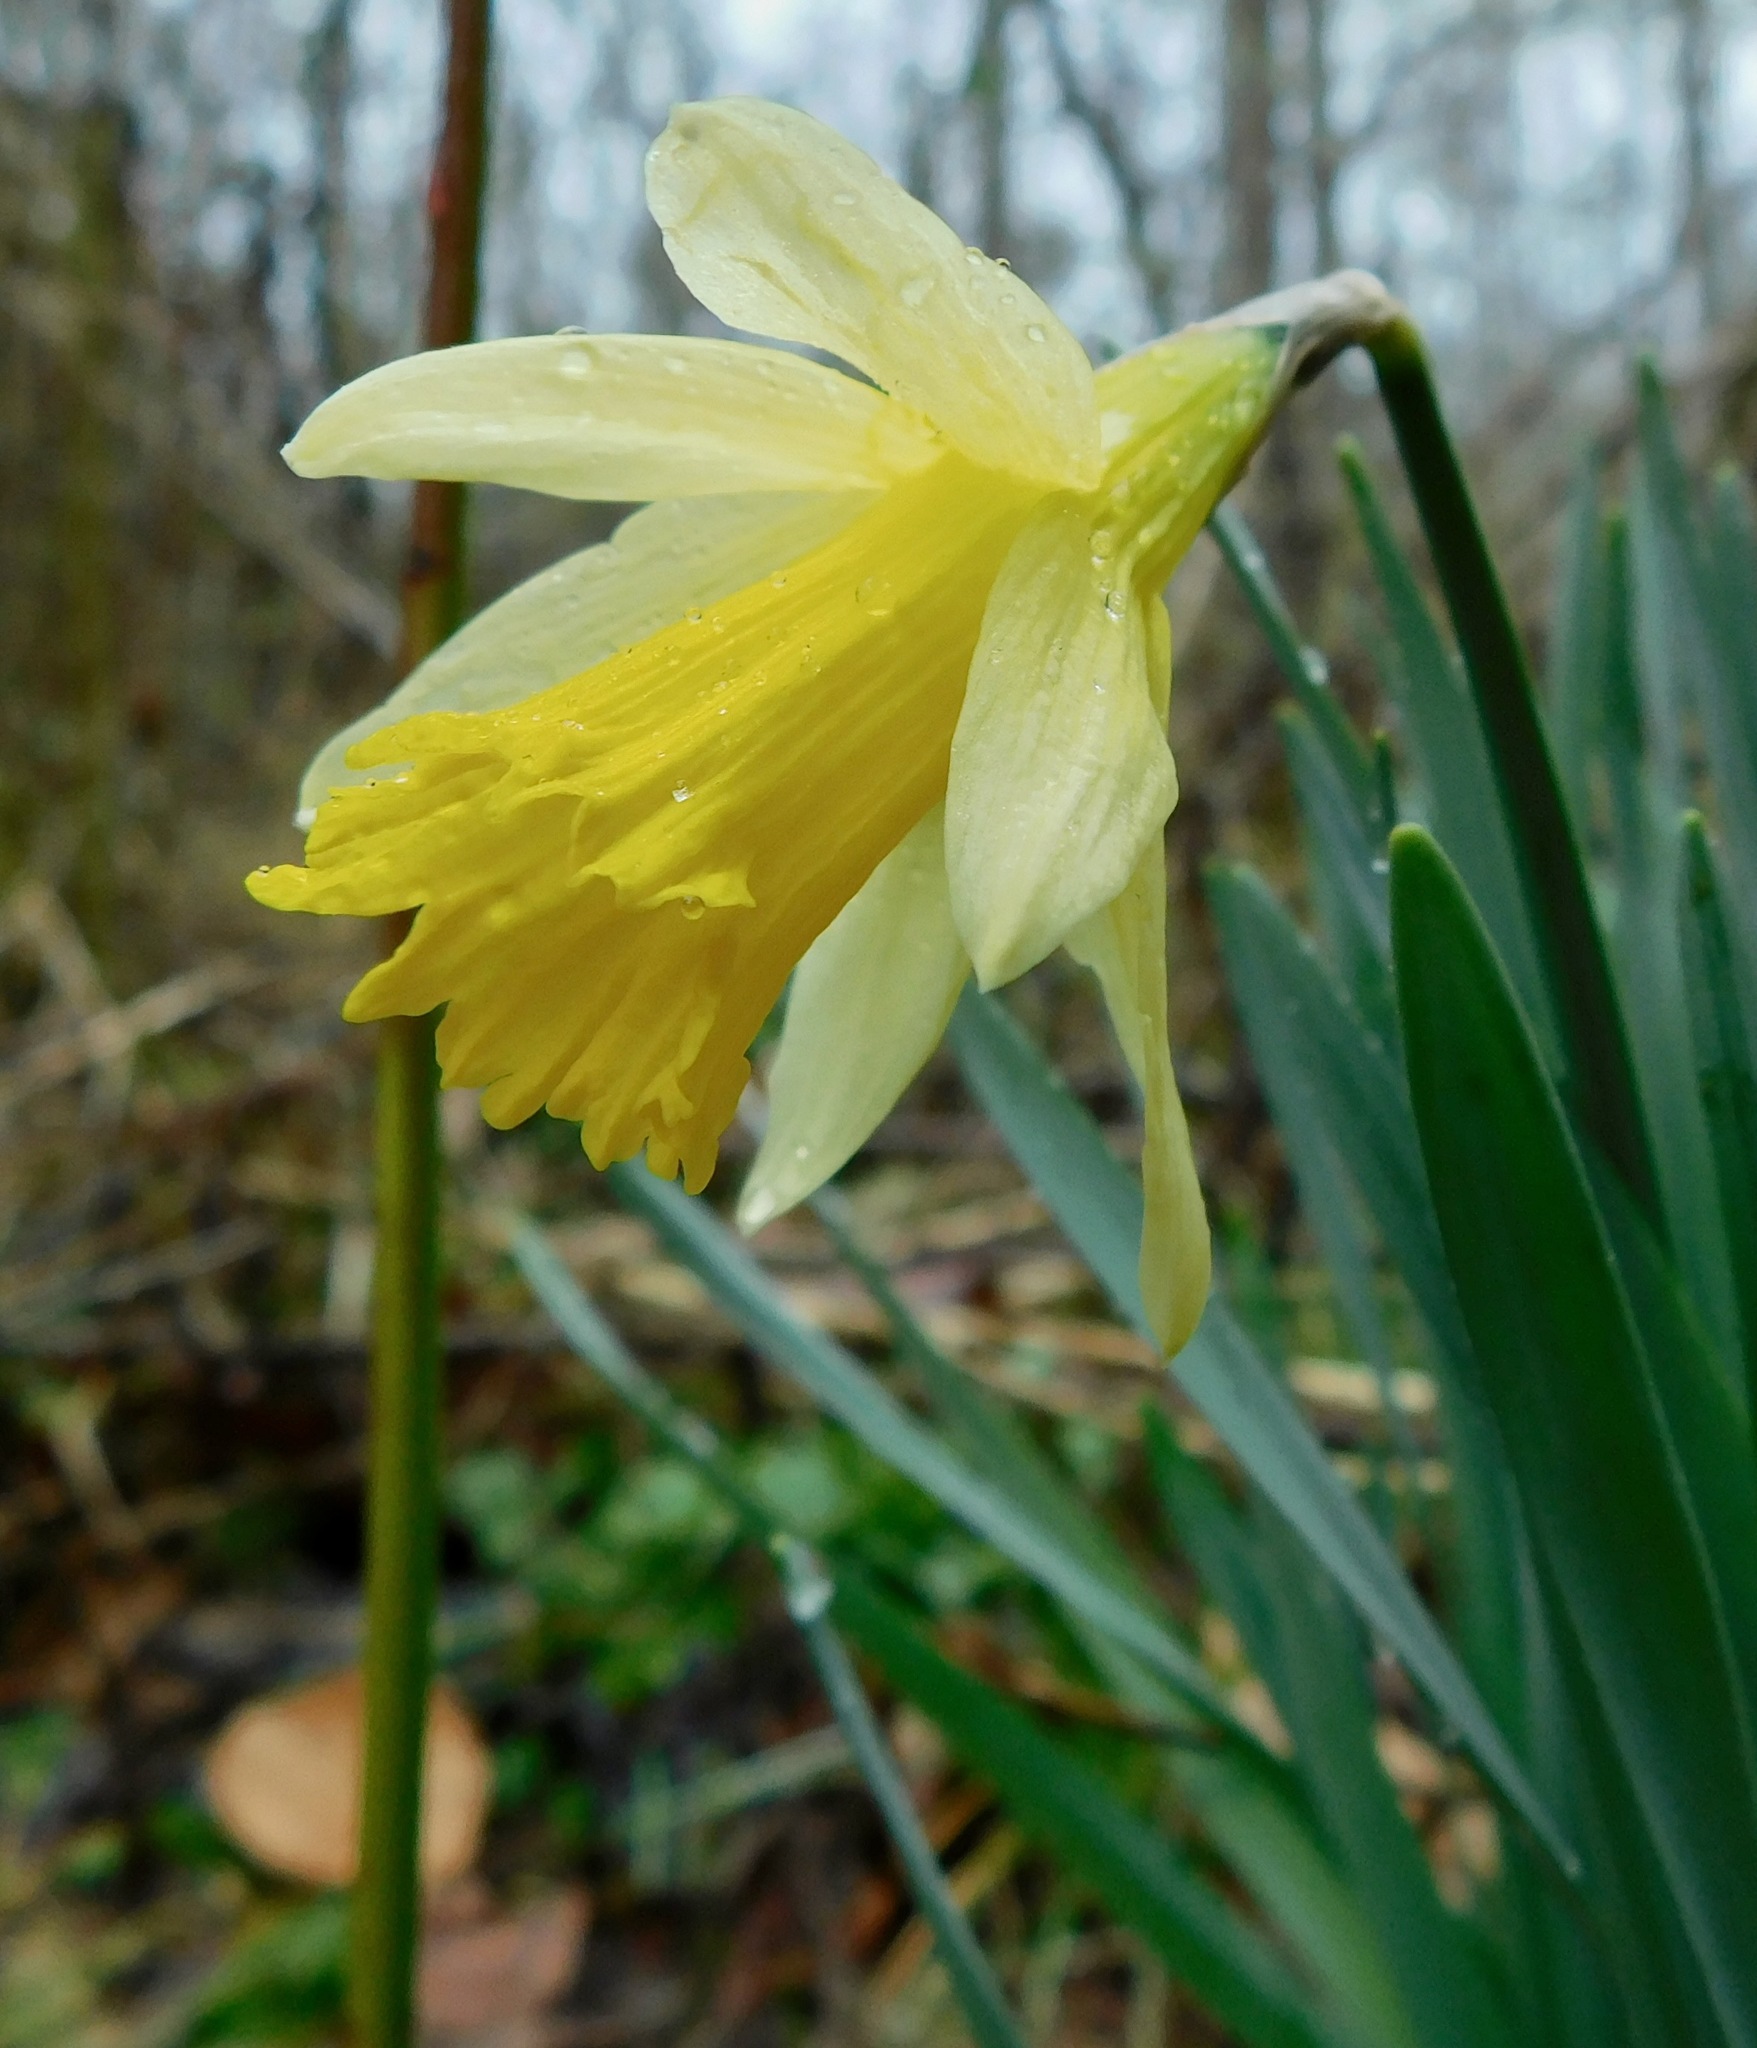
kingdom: Plantae
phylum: Tracheophyta
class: Liliopsida
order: Asparagales
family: Amaryllidaceae
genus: Narcissus
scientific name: Narcissus pseudonarcissus
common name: Daffodil
